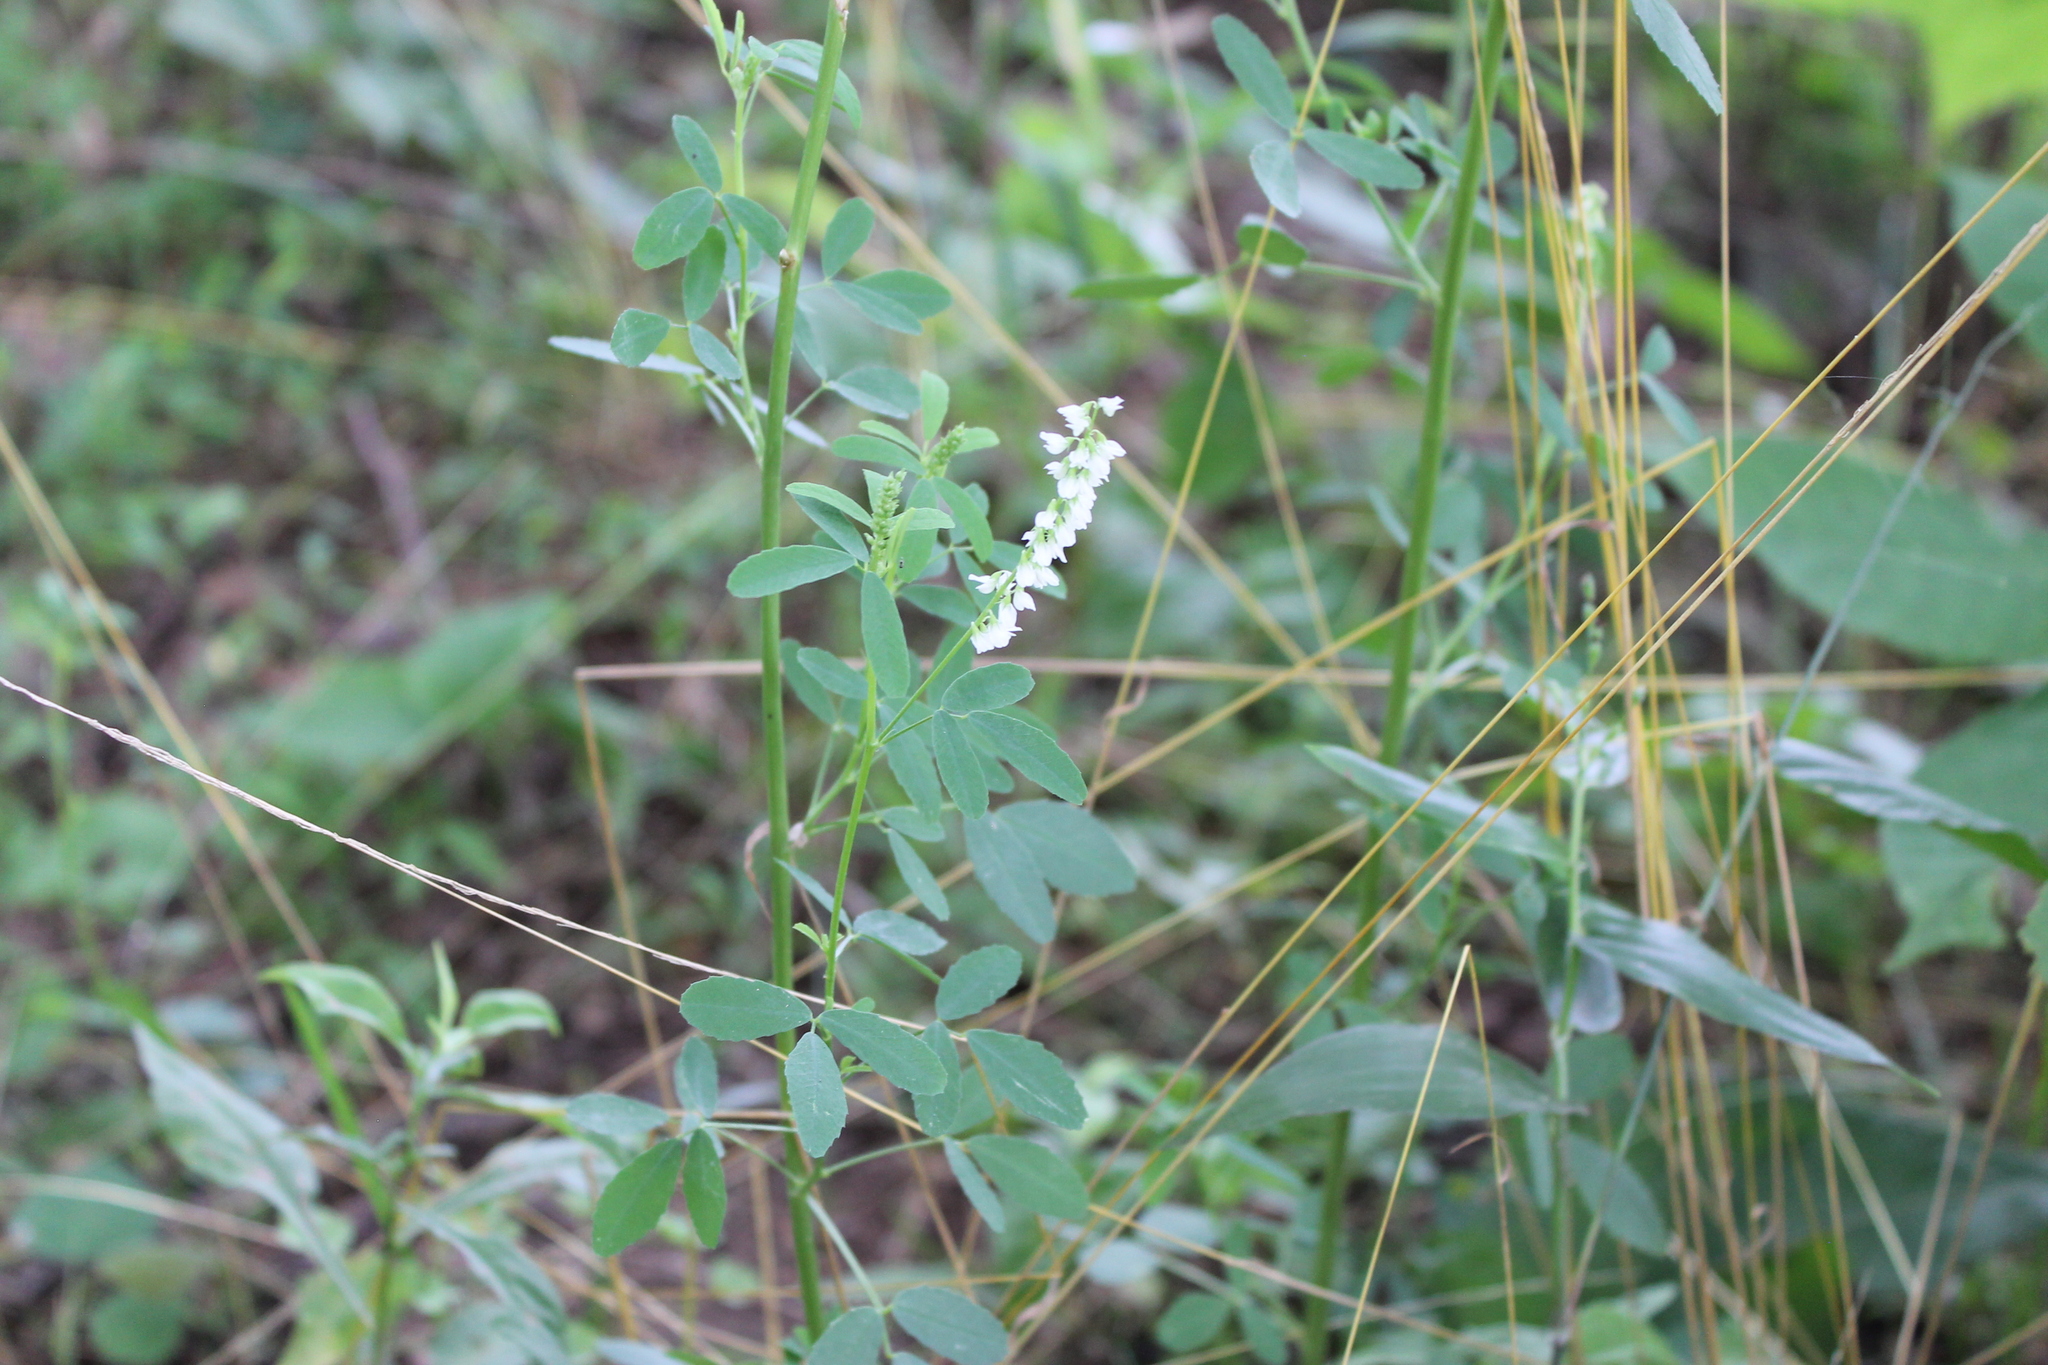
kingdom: Plantae
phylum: Tracheophyta
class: Magnoliopsida
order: Fabales
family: Fabaceae
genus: Melilotus
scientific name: Melilotus albus
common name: White melilot
